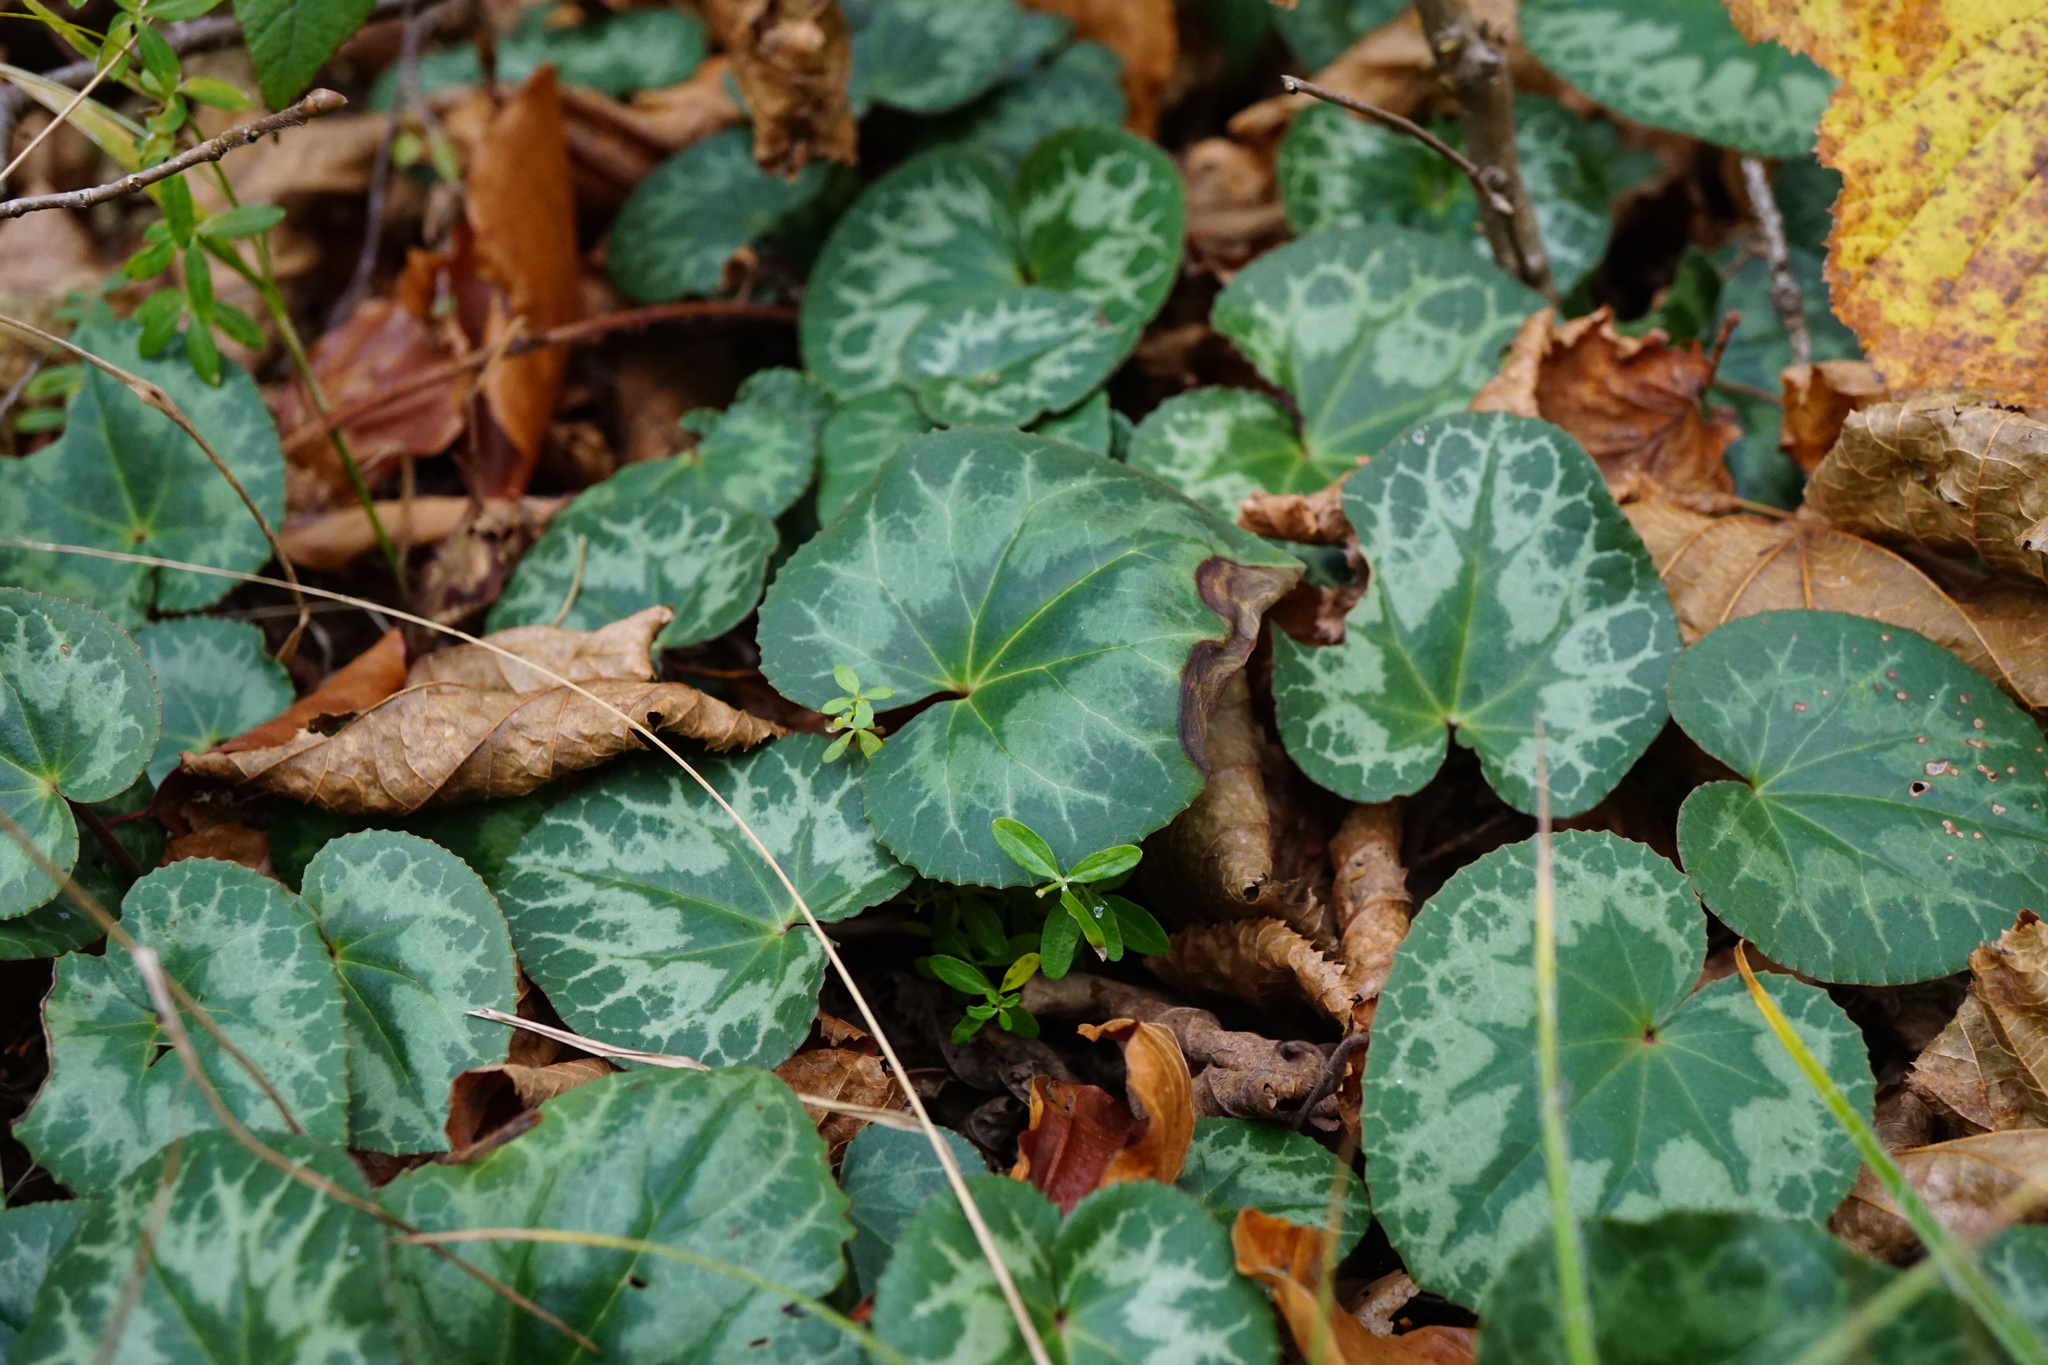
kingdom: Plantae
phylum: Tracheophyta
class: Magnoliopsida
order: Ericales
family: Primulaceae
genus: Cyclamen
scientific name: Cyclamen purpurascens
